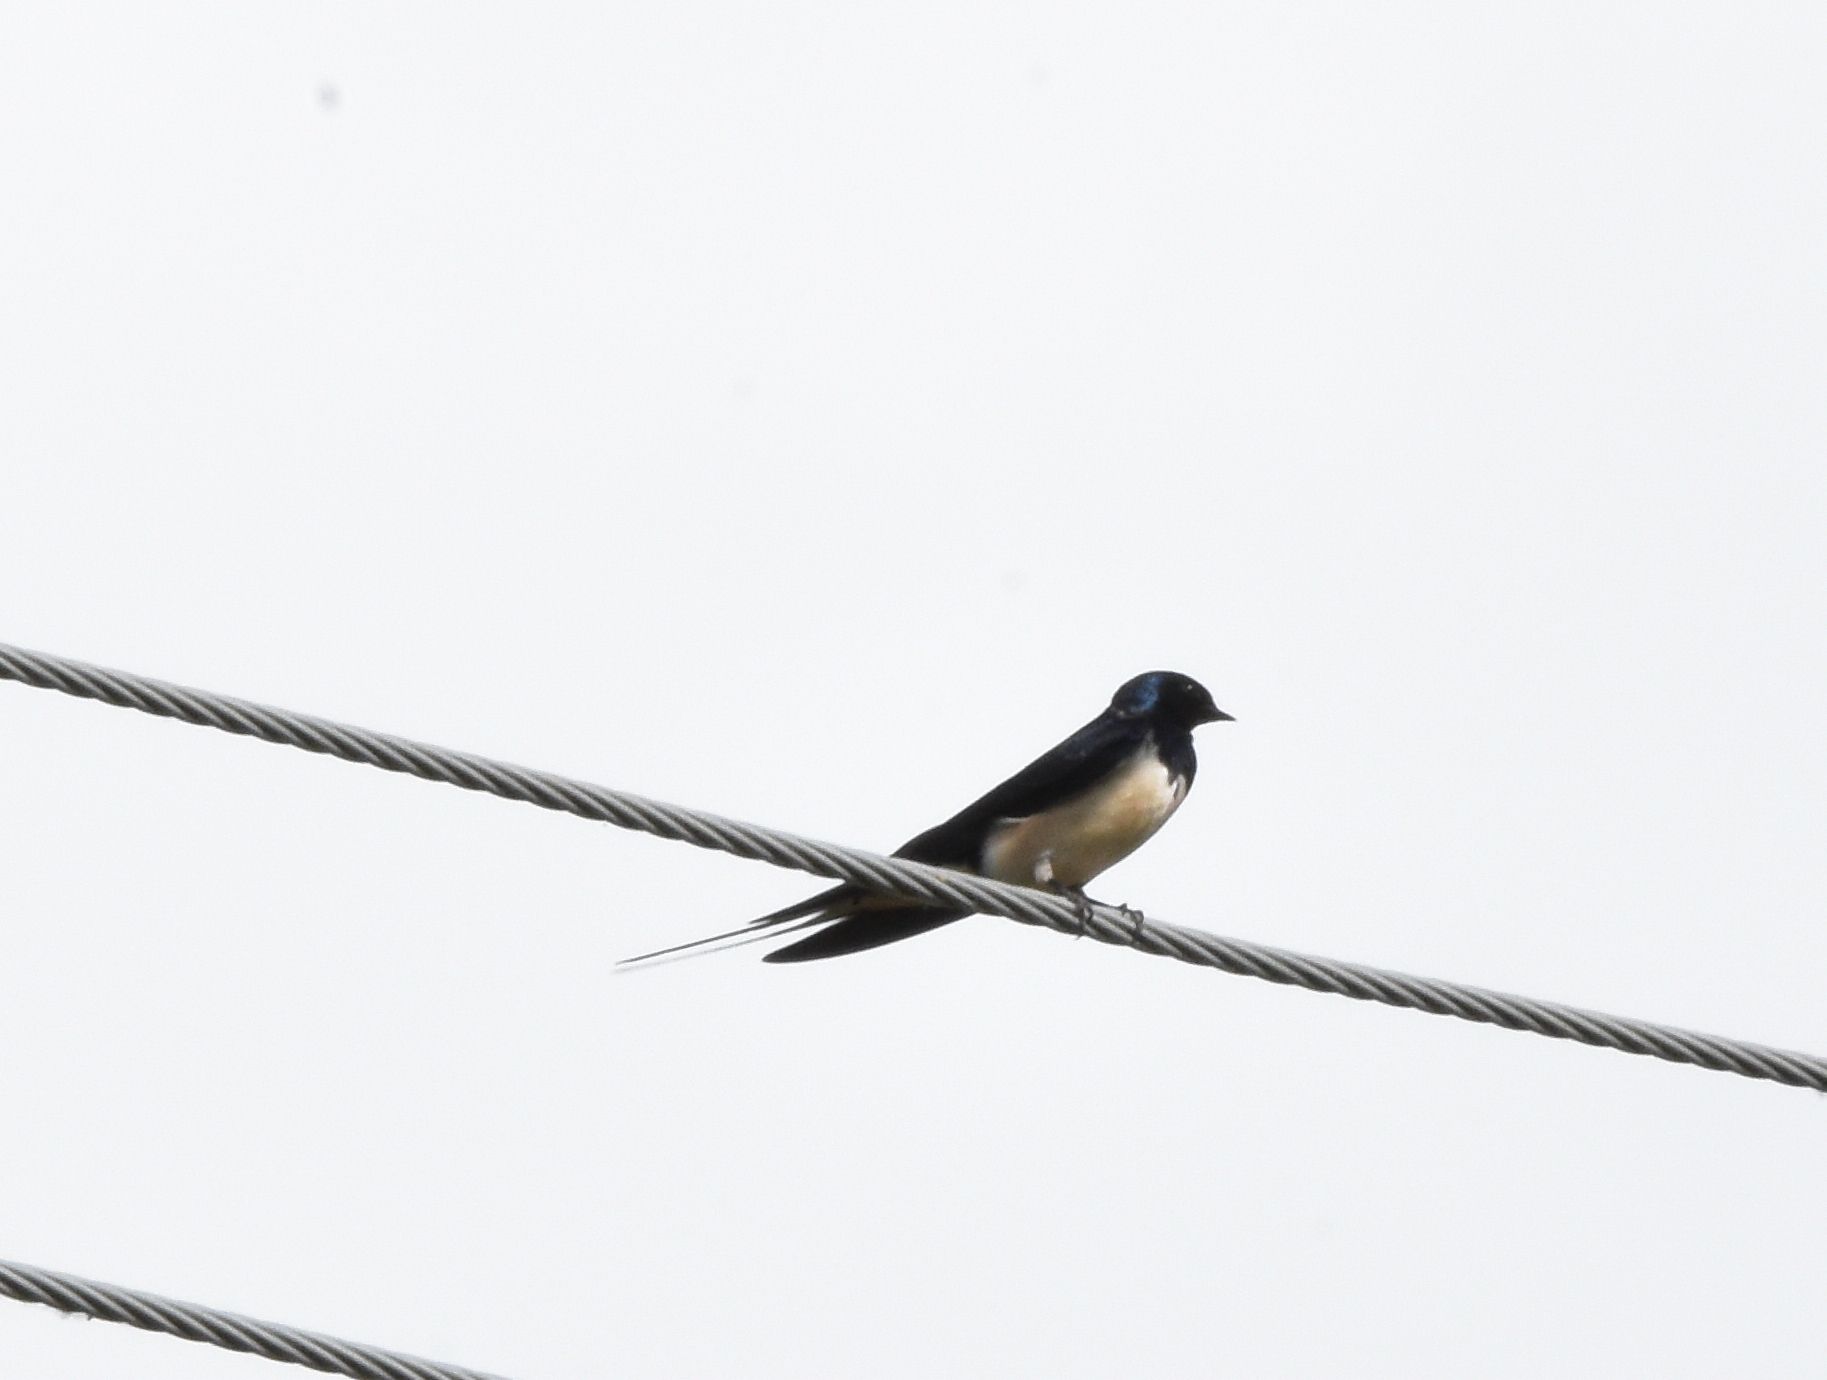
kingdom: Animalia
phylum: Chordata
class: Aves
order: Passeriformes
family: Hirundinidae
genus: Hirundo
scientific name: Hirundo rustica
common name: Barn swallow
